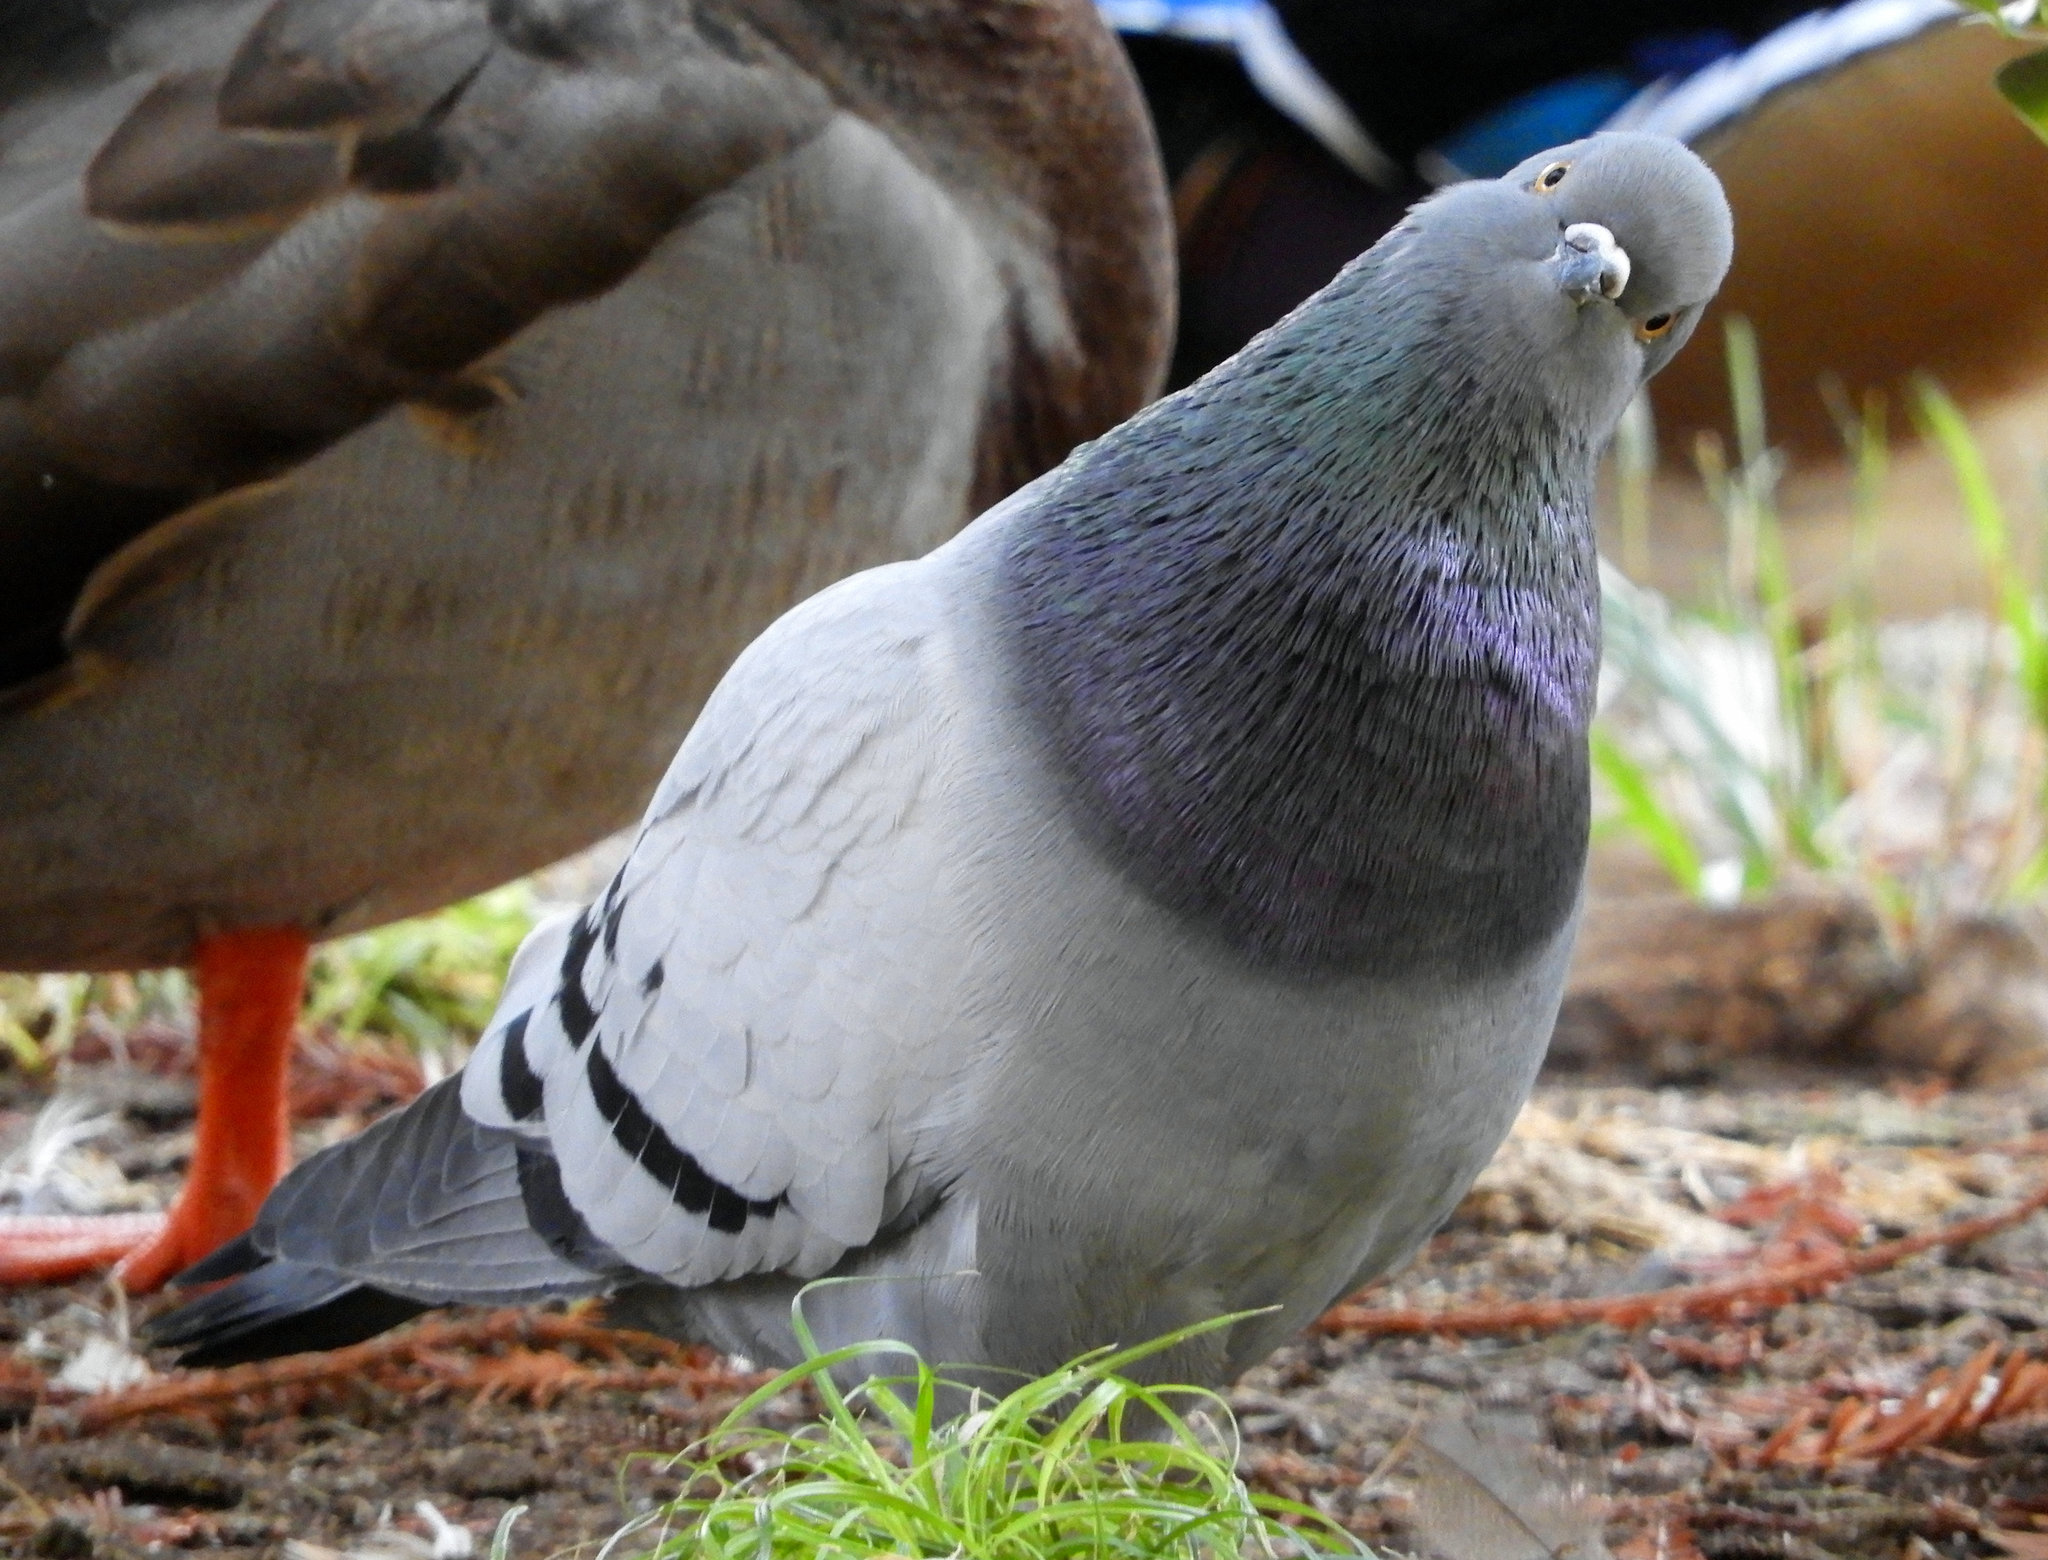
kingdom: Animalia
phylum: Chordata
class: Aves
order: Columbiformes
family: Columbidae
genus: Columba
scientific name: Columba livia
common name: Rock pigeon
